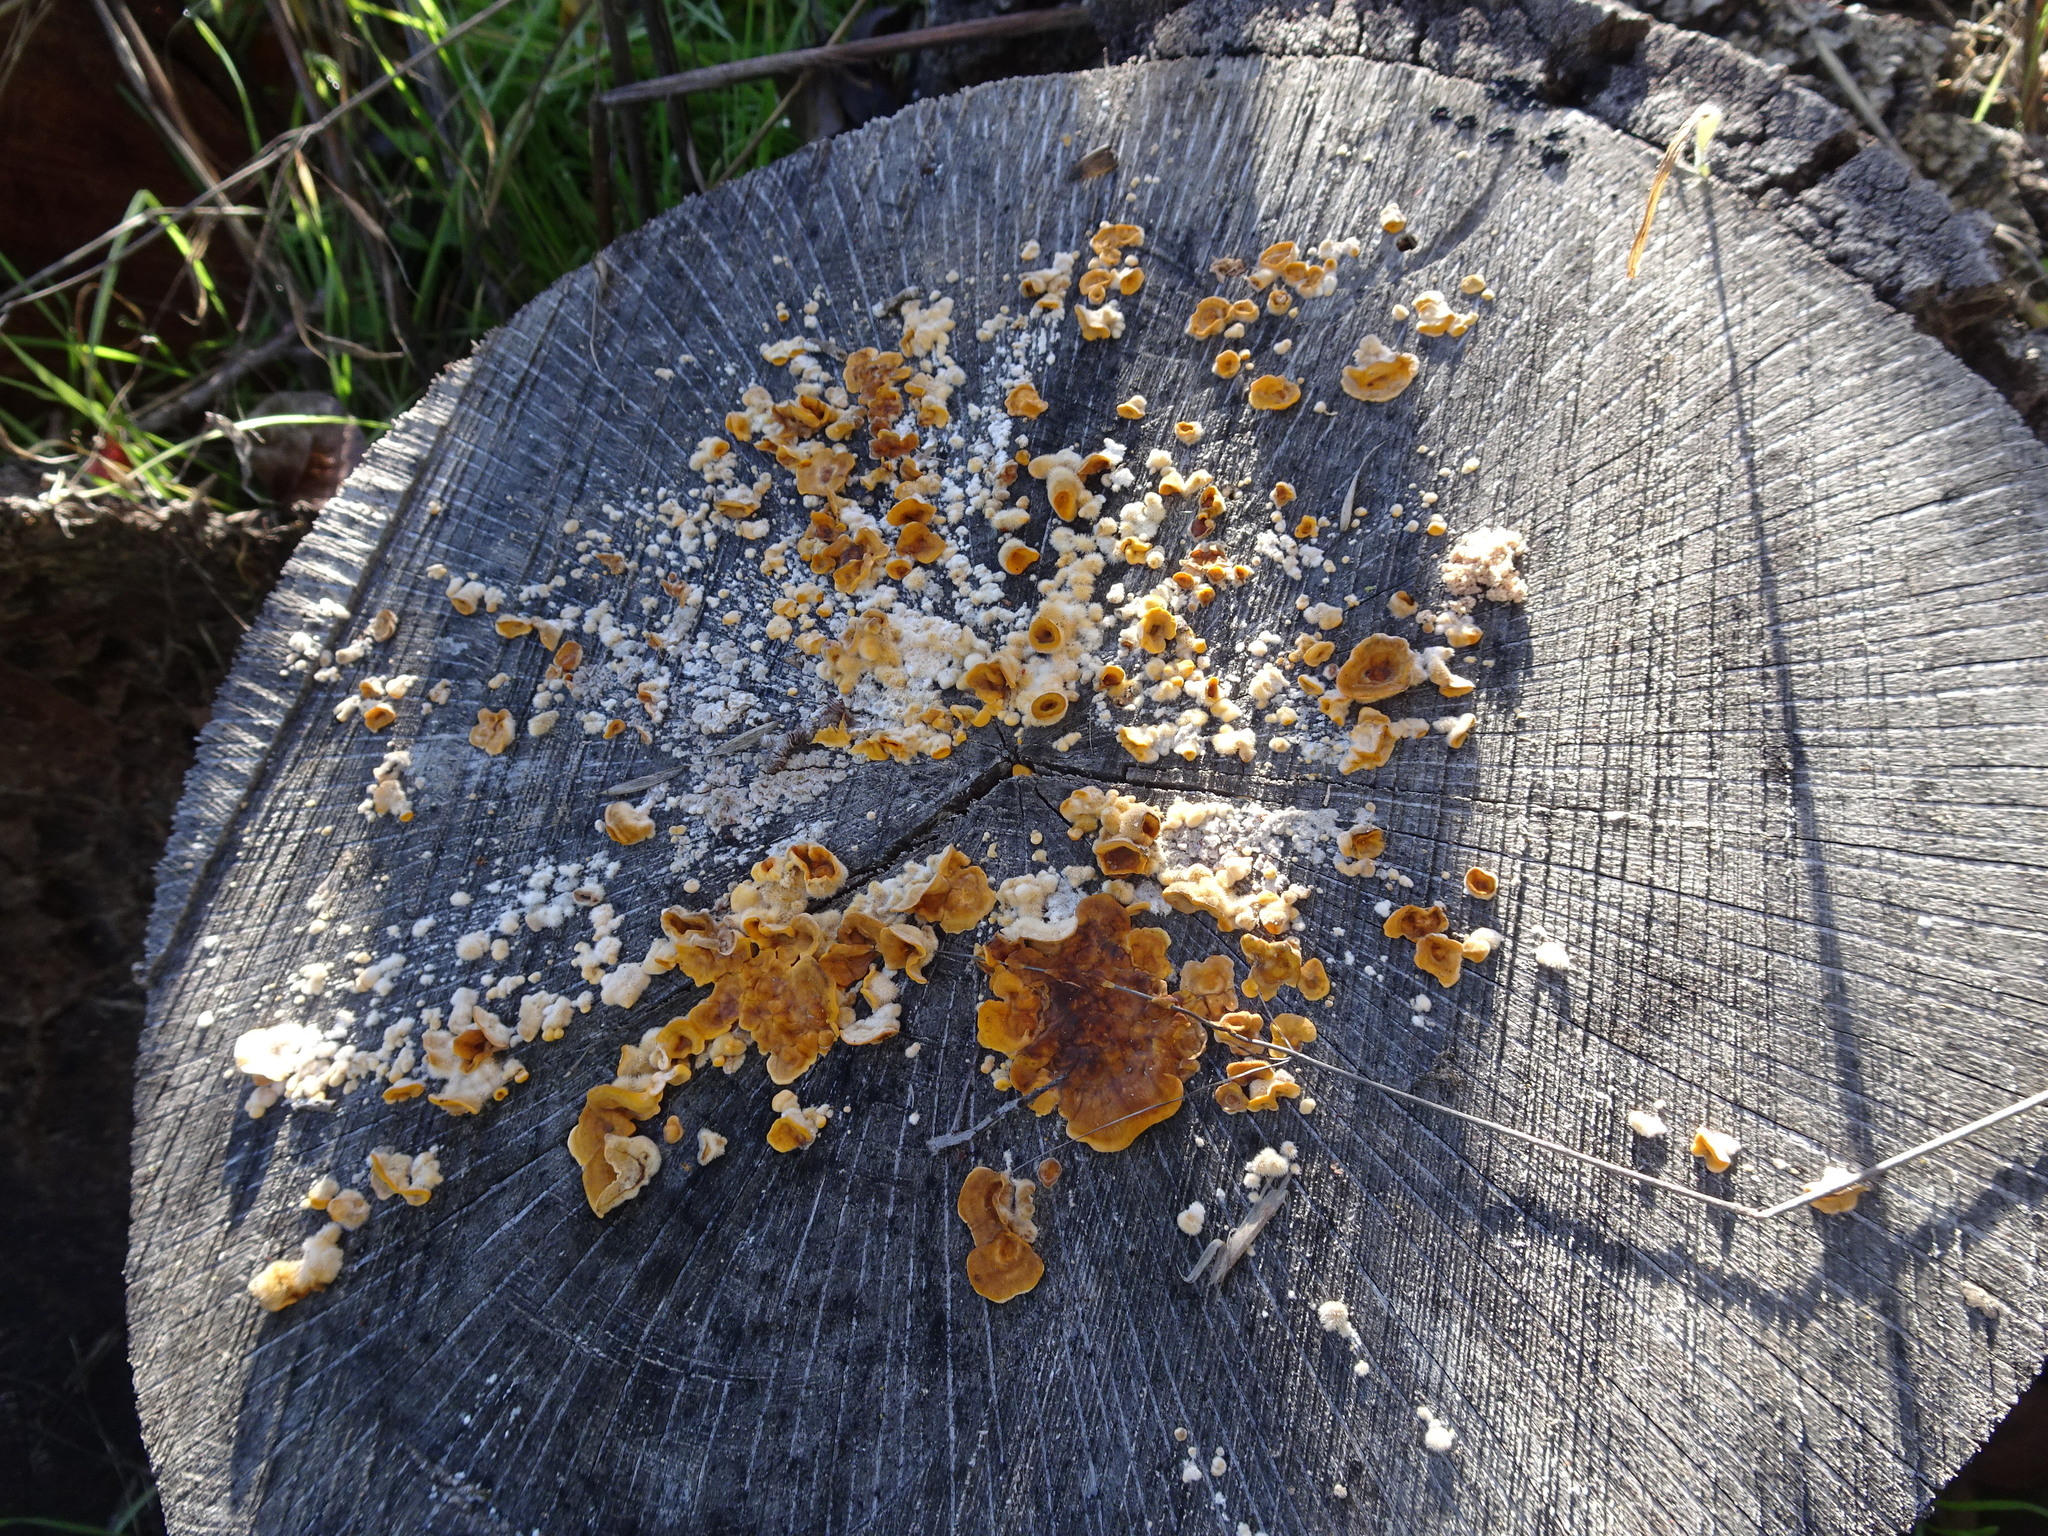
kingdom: Fungi
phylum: Basidiomycota
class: Agaricomycetes
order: Russulales
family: Stereaceae
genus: Stereum
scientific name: Stereum hirsutum
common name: Hairy curtain crust
